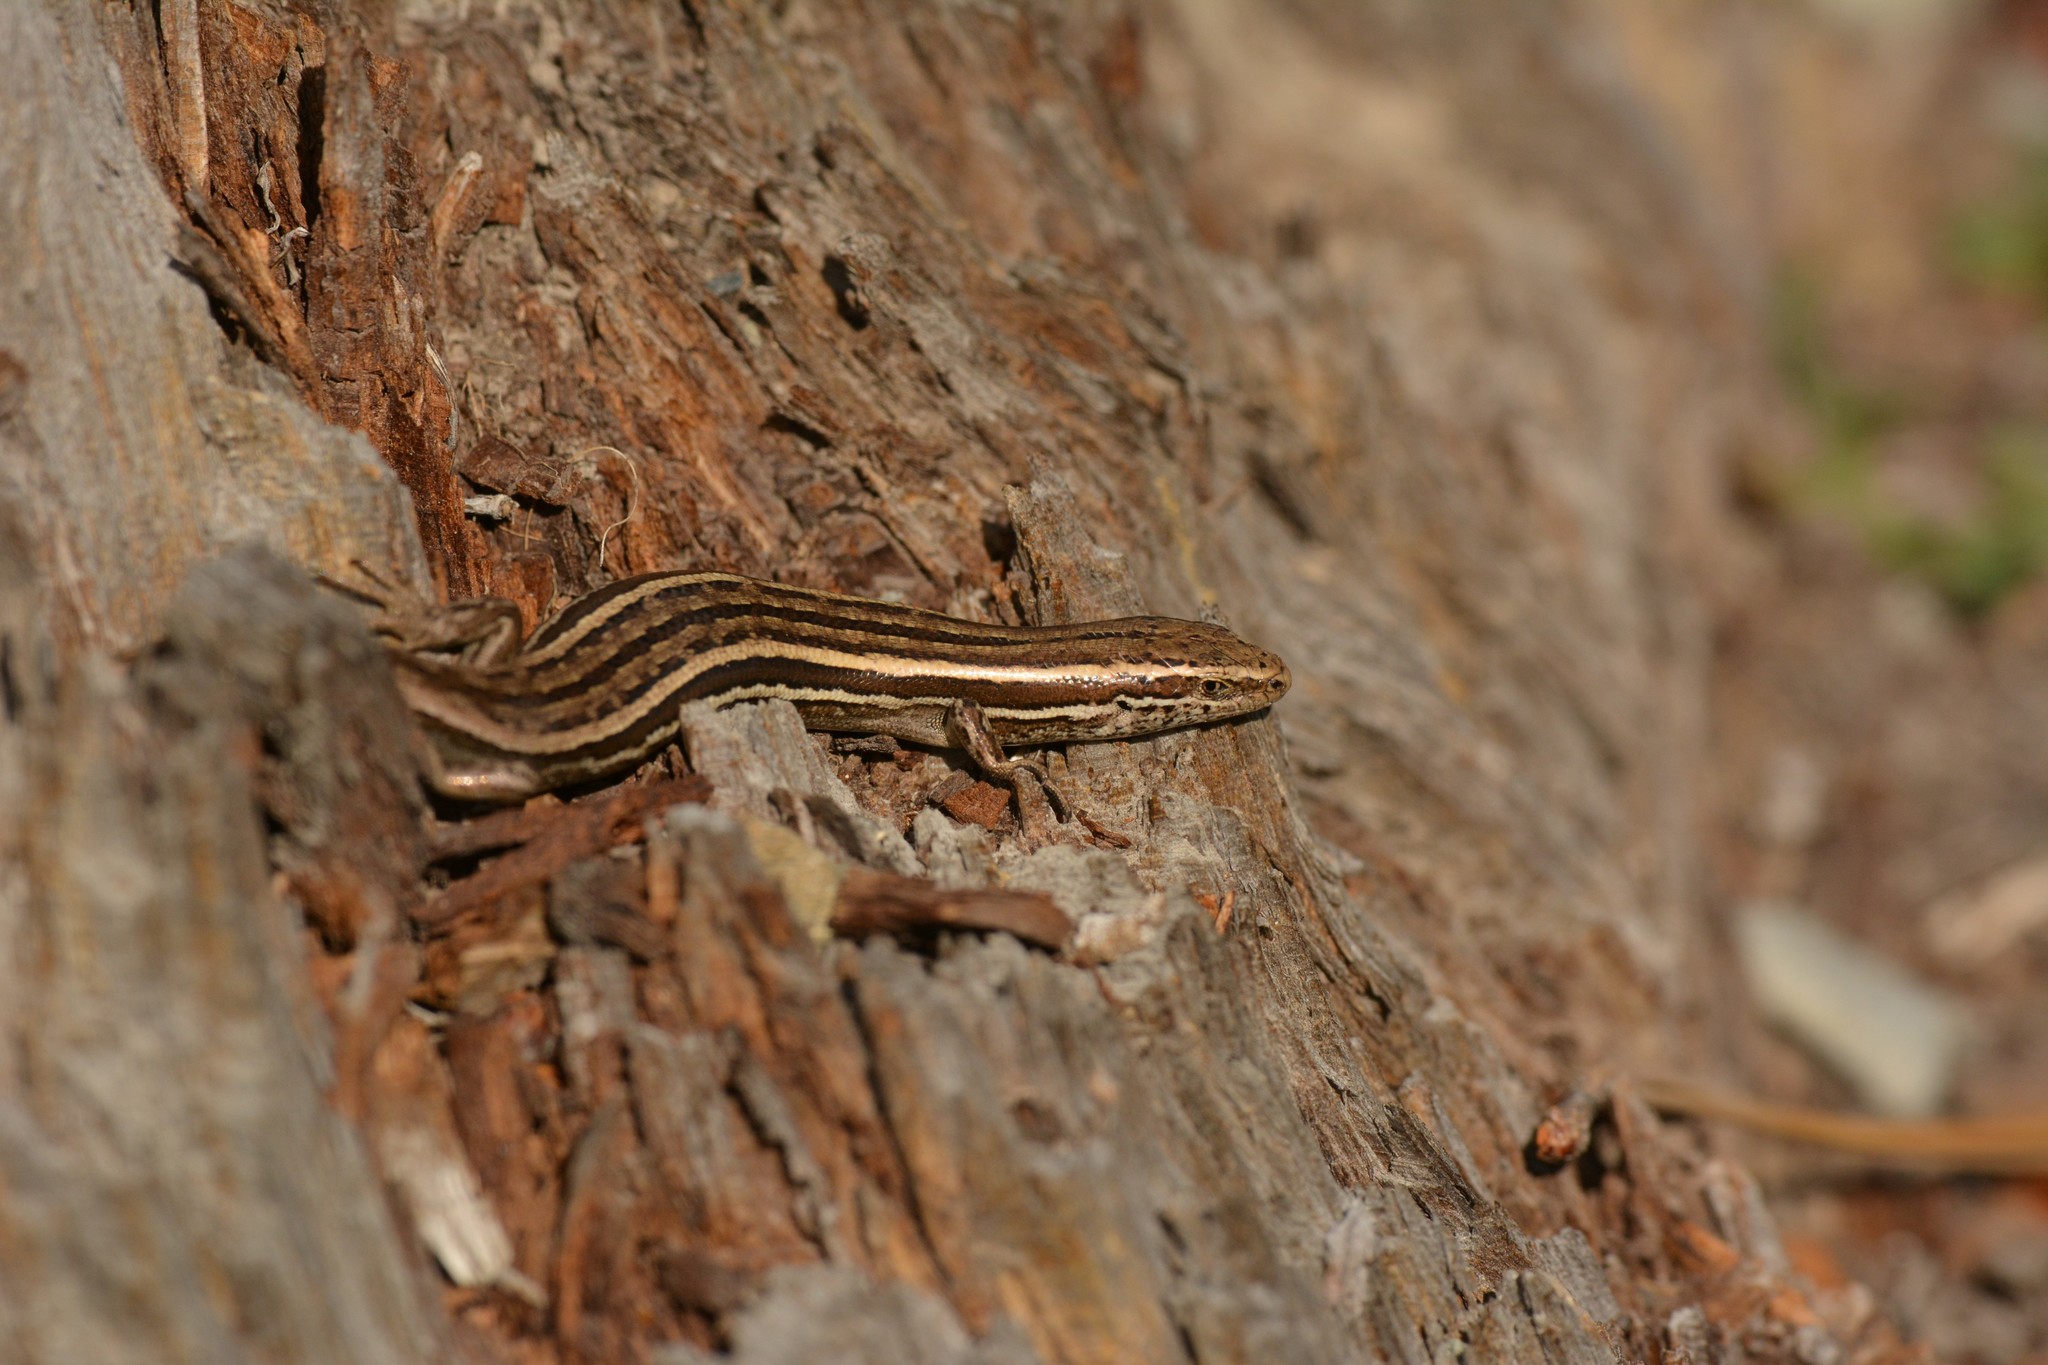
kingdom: Animalia
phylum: Chordata
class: Squamata
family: Scincidae
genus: Oligosoma
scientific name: Oligosoma maccanni
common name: Mccann’s skink
